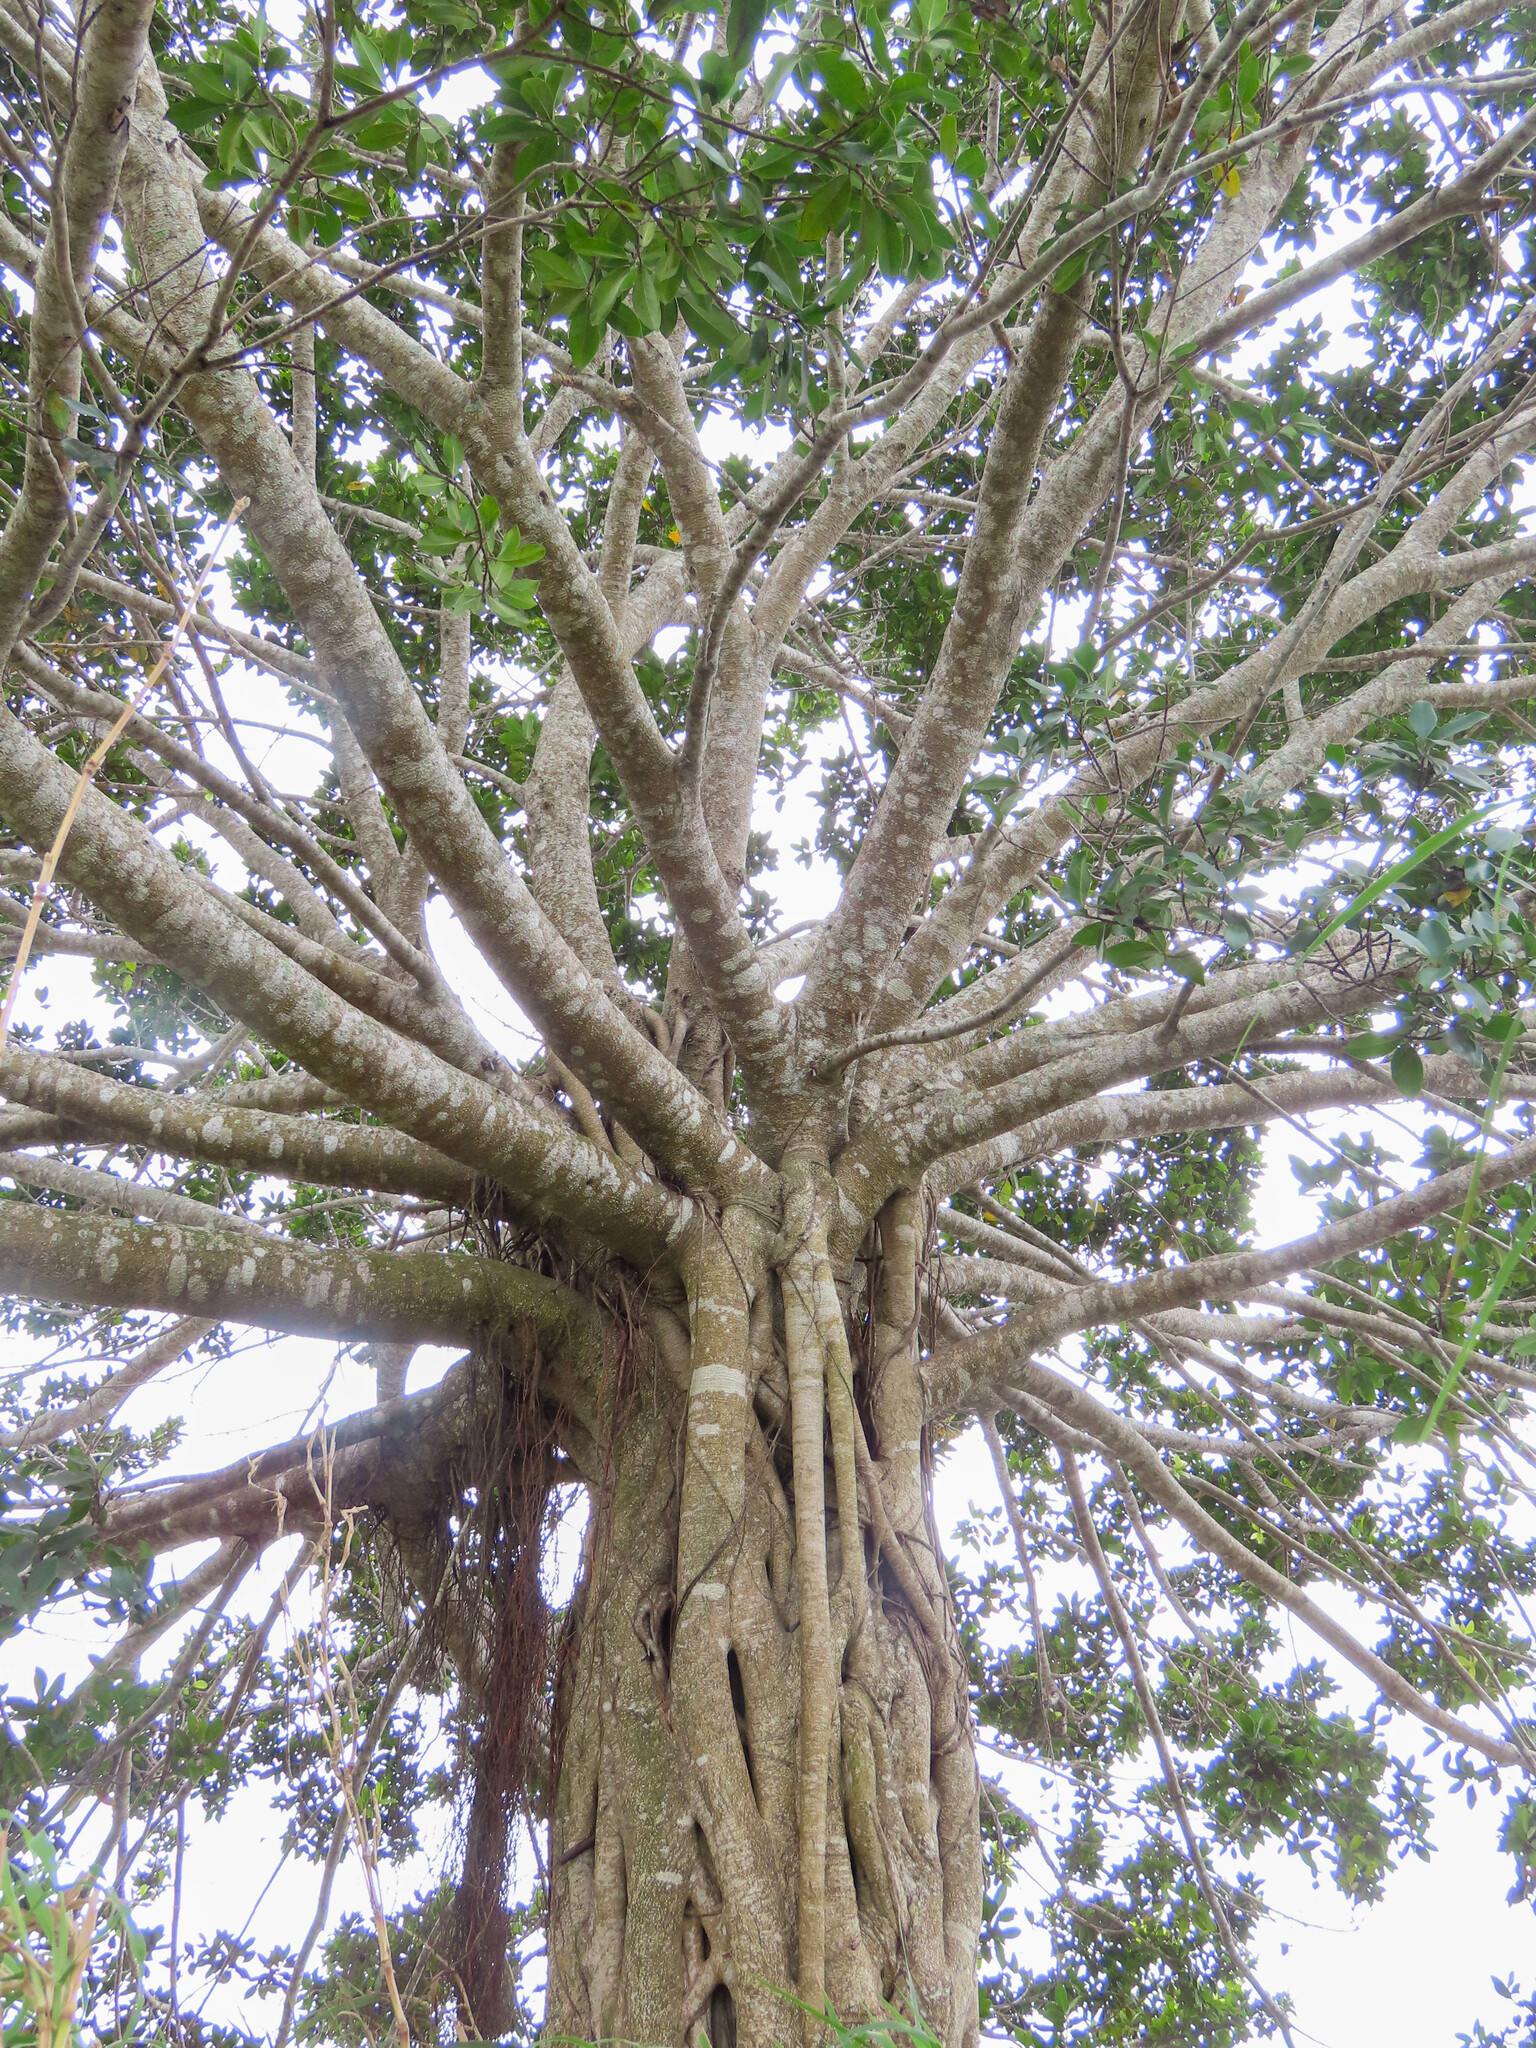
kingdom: Plantae
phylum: Tracheophyta
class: Magnoliopsida
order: Rosales
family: Moraceae
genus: Ficus
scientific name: Ficus microcarpa
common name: Chinese banyan
